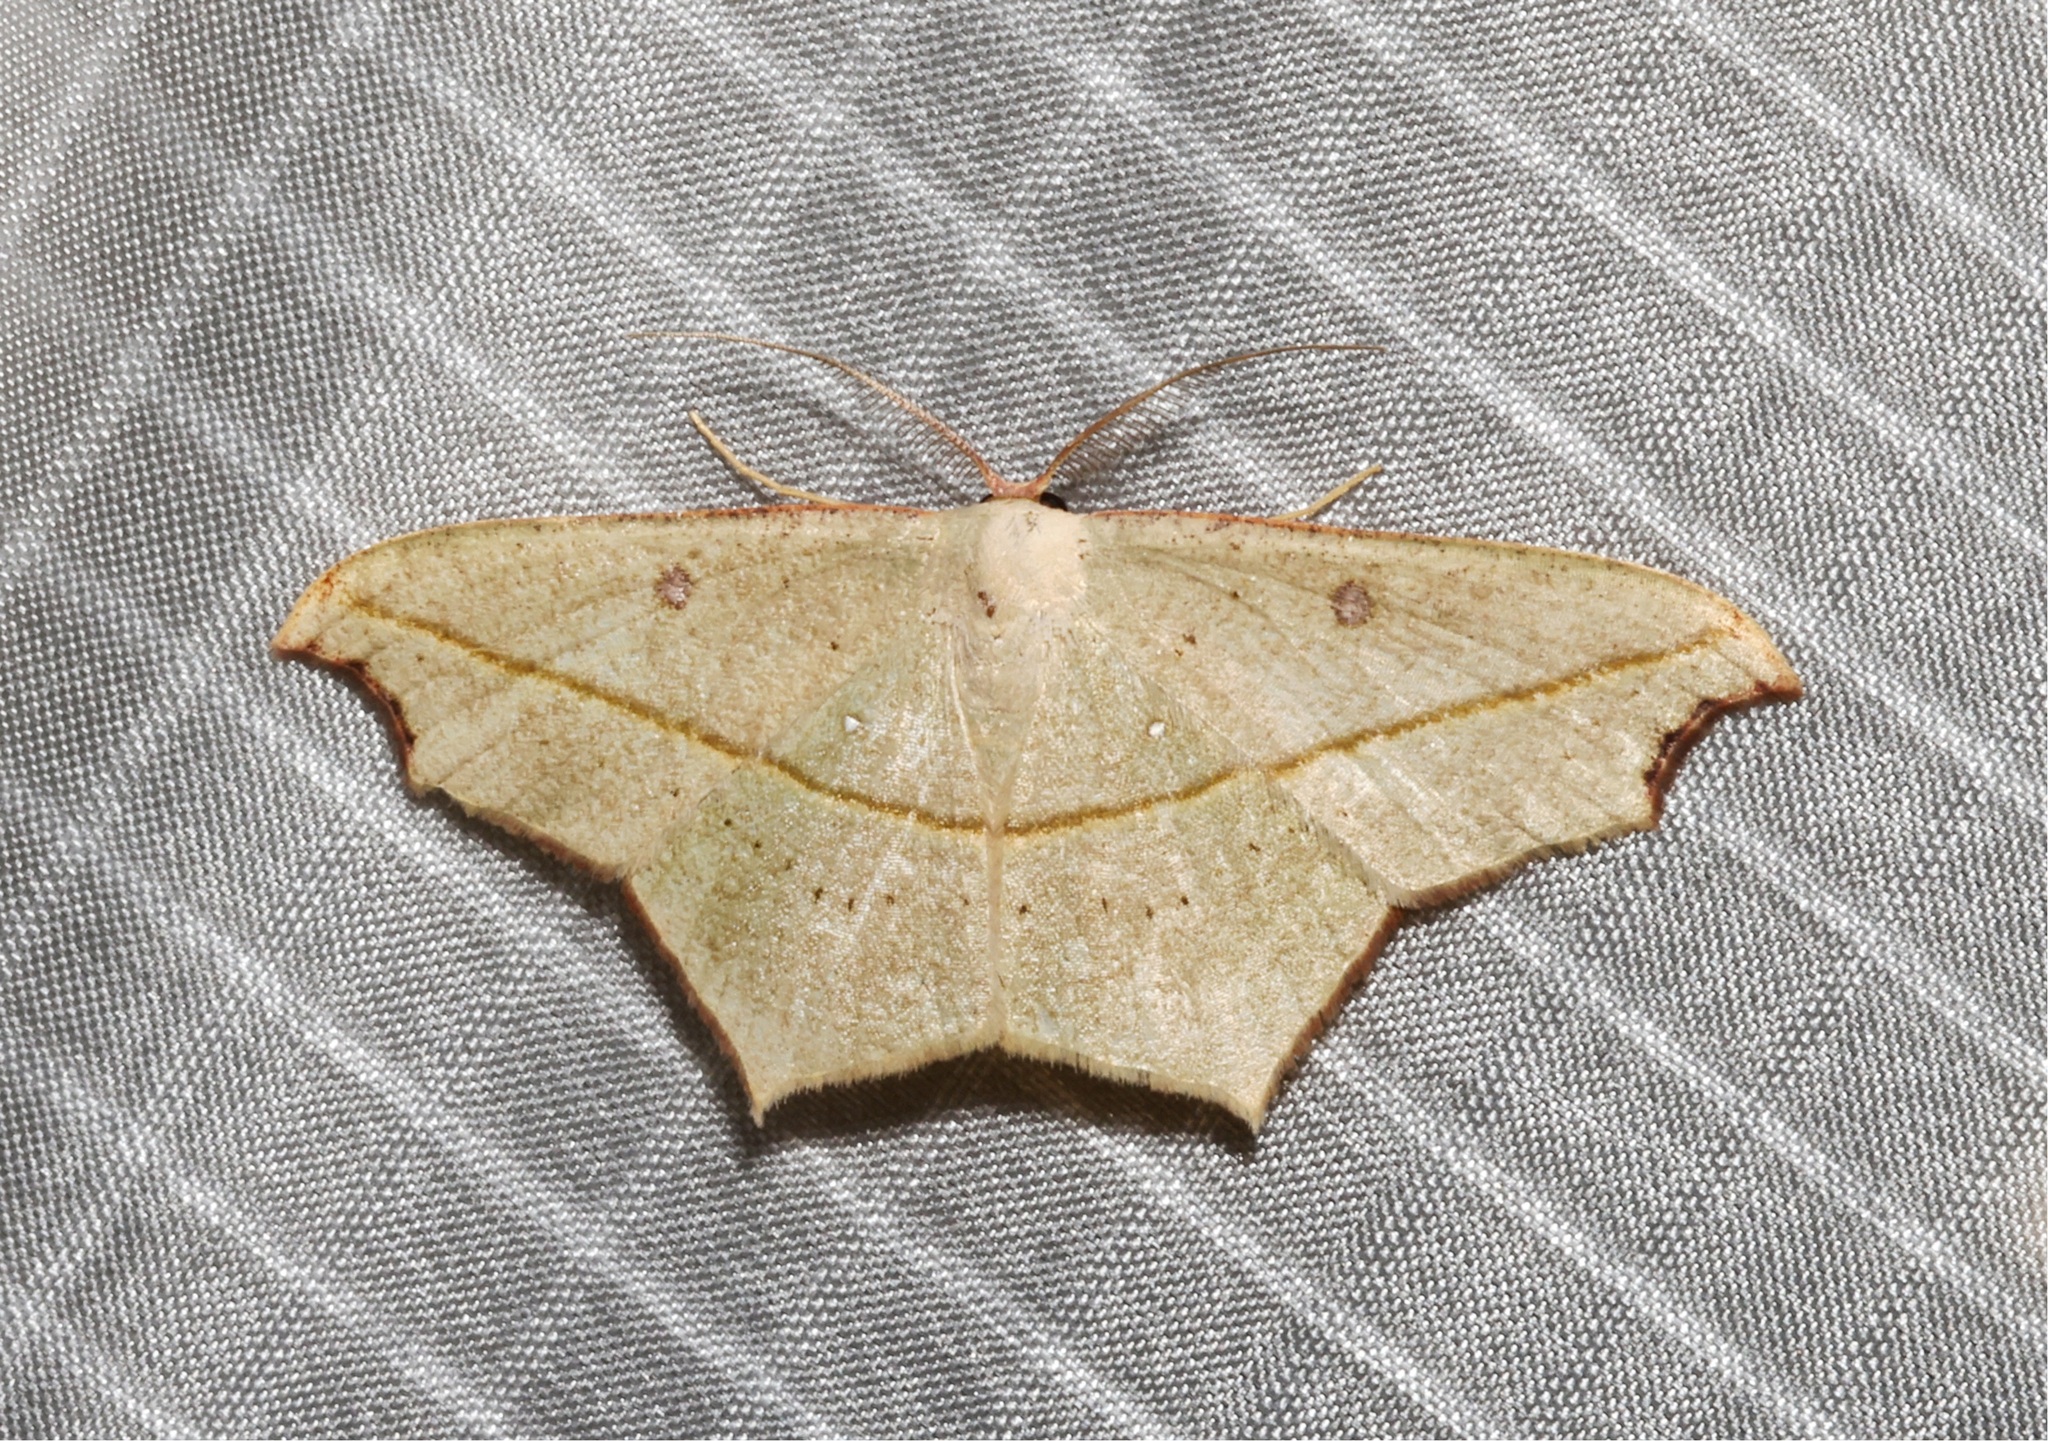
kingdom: Animalia
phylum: Arthropoda
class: Insecta
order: Lepidoptera
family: Geometridae
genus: Traminda
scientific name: Traminda aventiaria
